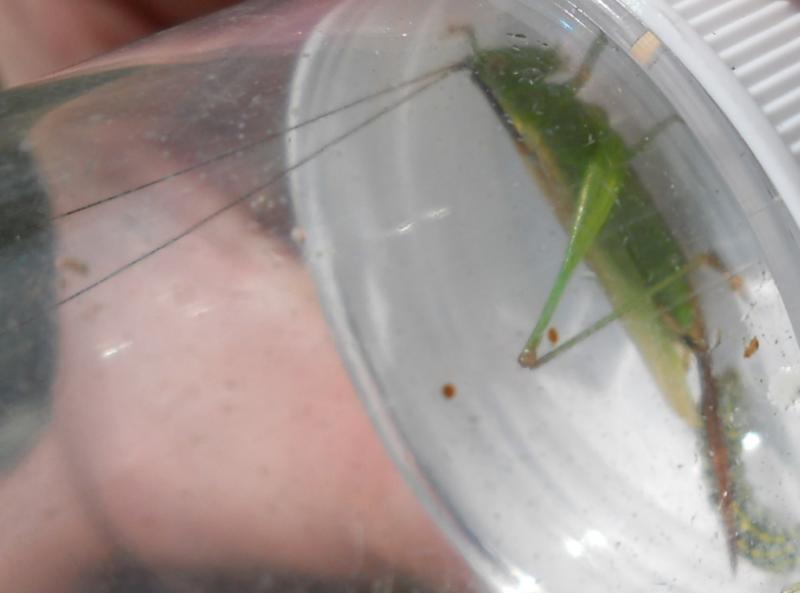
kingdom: Animalia
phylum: Arthropoda
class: Insecta
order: Orthoptera
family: Tettigoniidae
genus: Conocephalus
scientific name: Conocephalus fuscus
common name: Long-winged conehead
